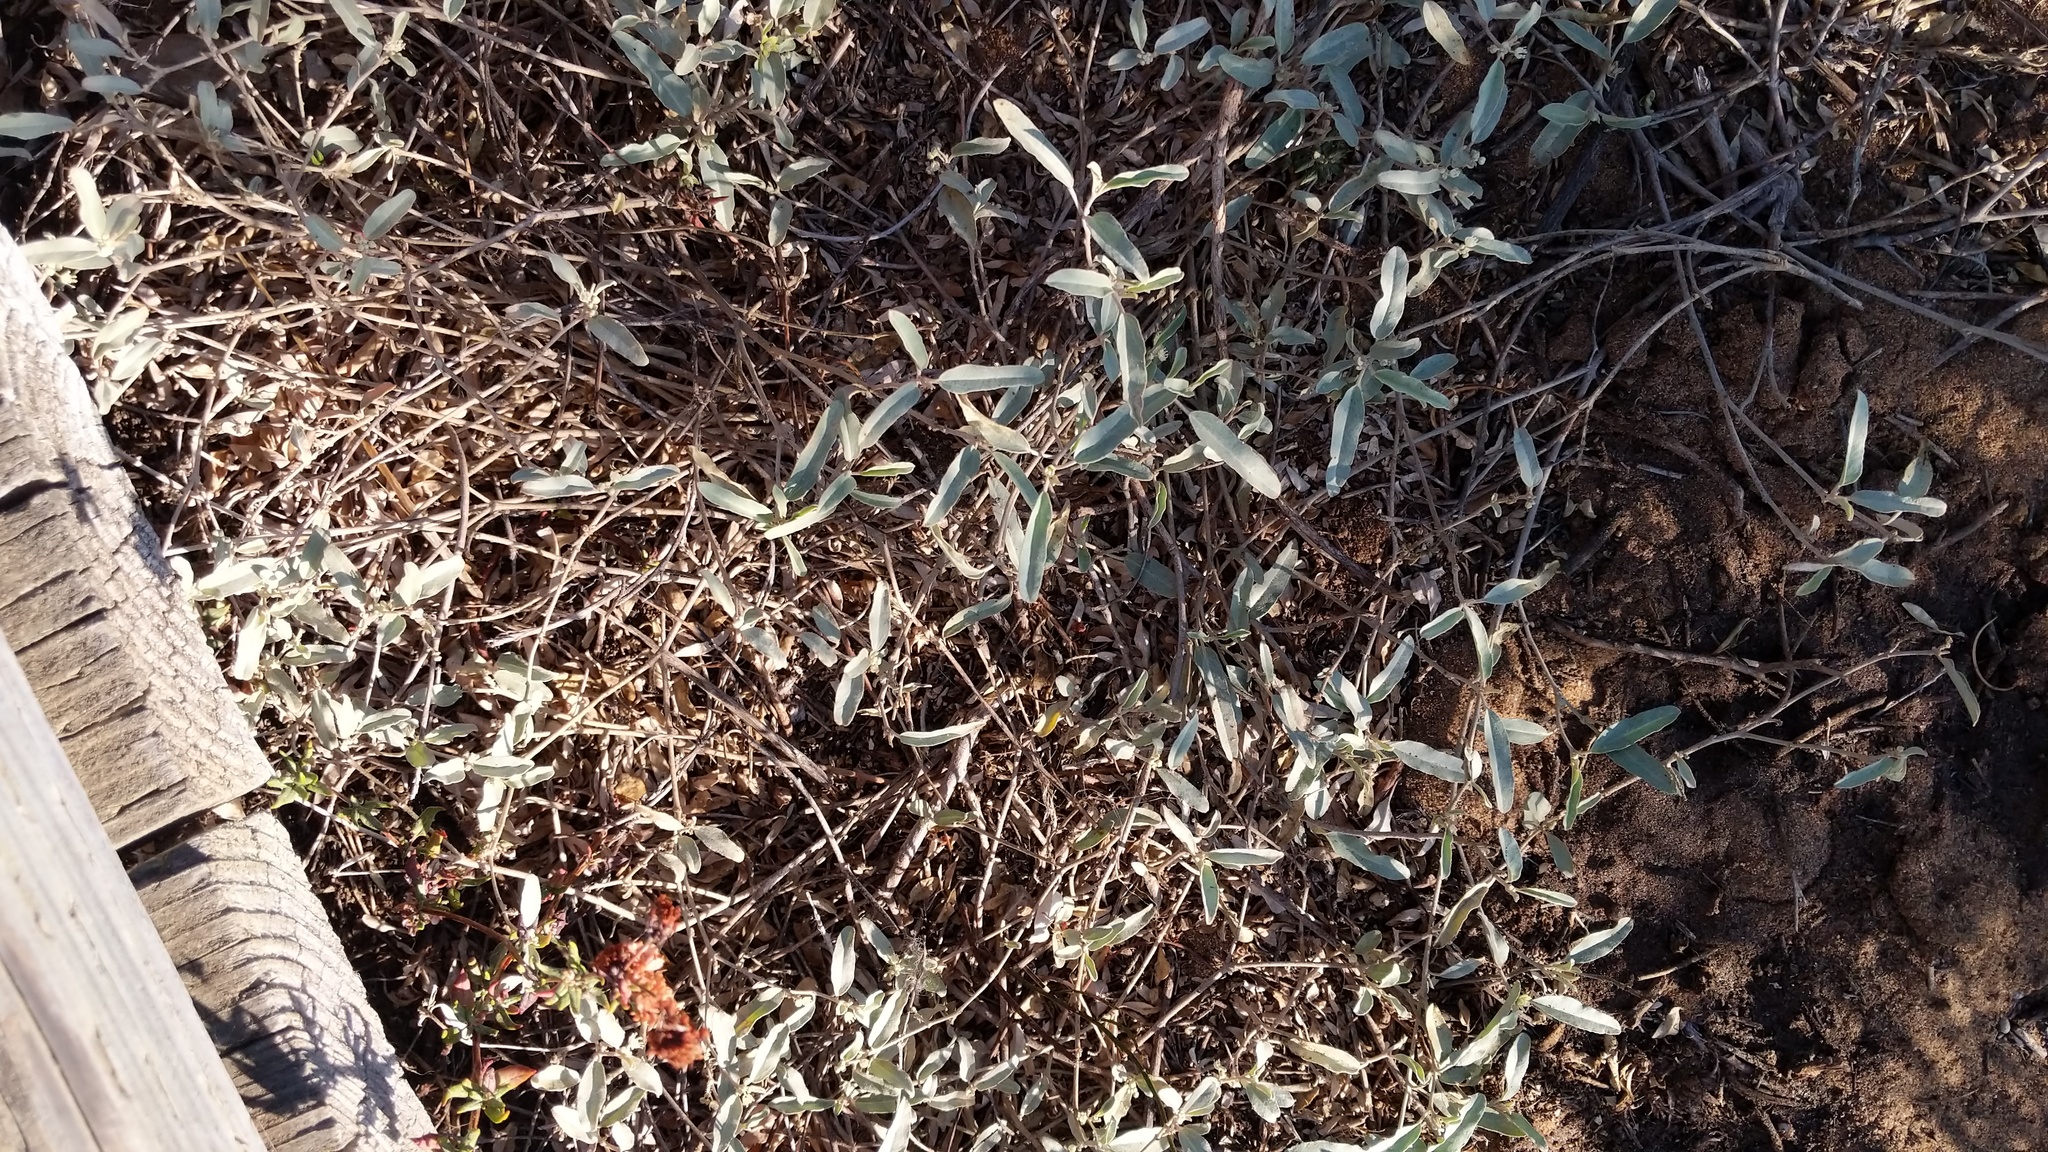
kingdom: Plantae
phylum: Tracheophyta
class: Magnoliopsida
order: Malpighiales
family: Euphorbiaceae
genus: Croton
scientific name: Croton californicus
